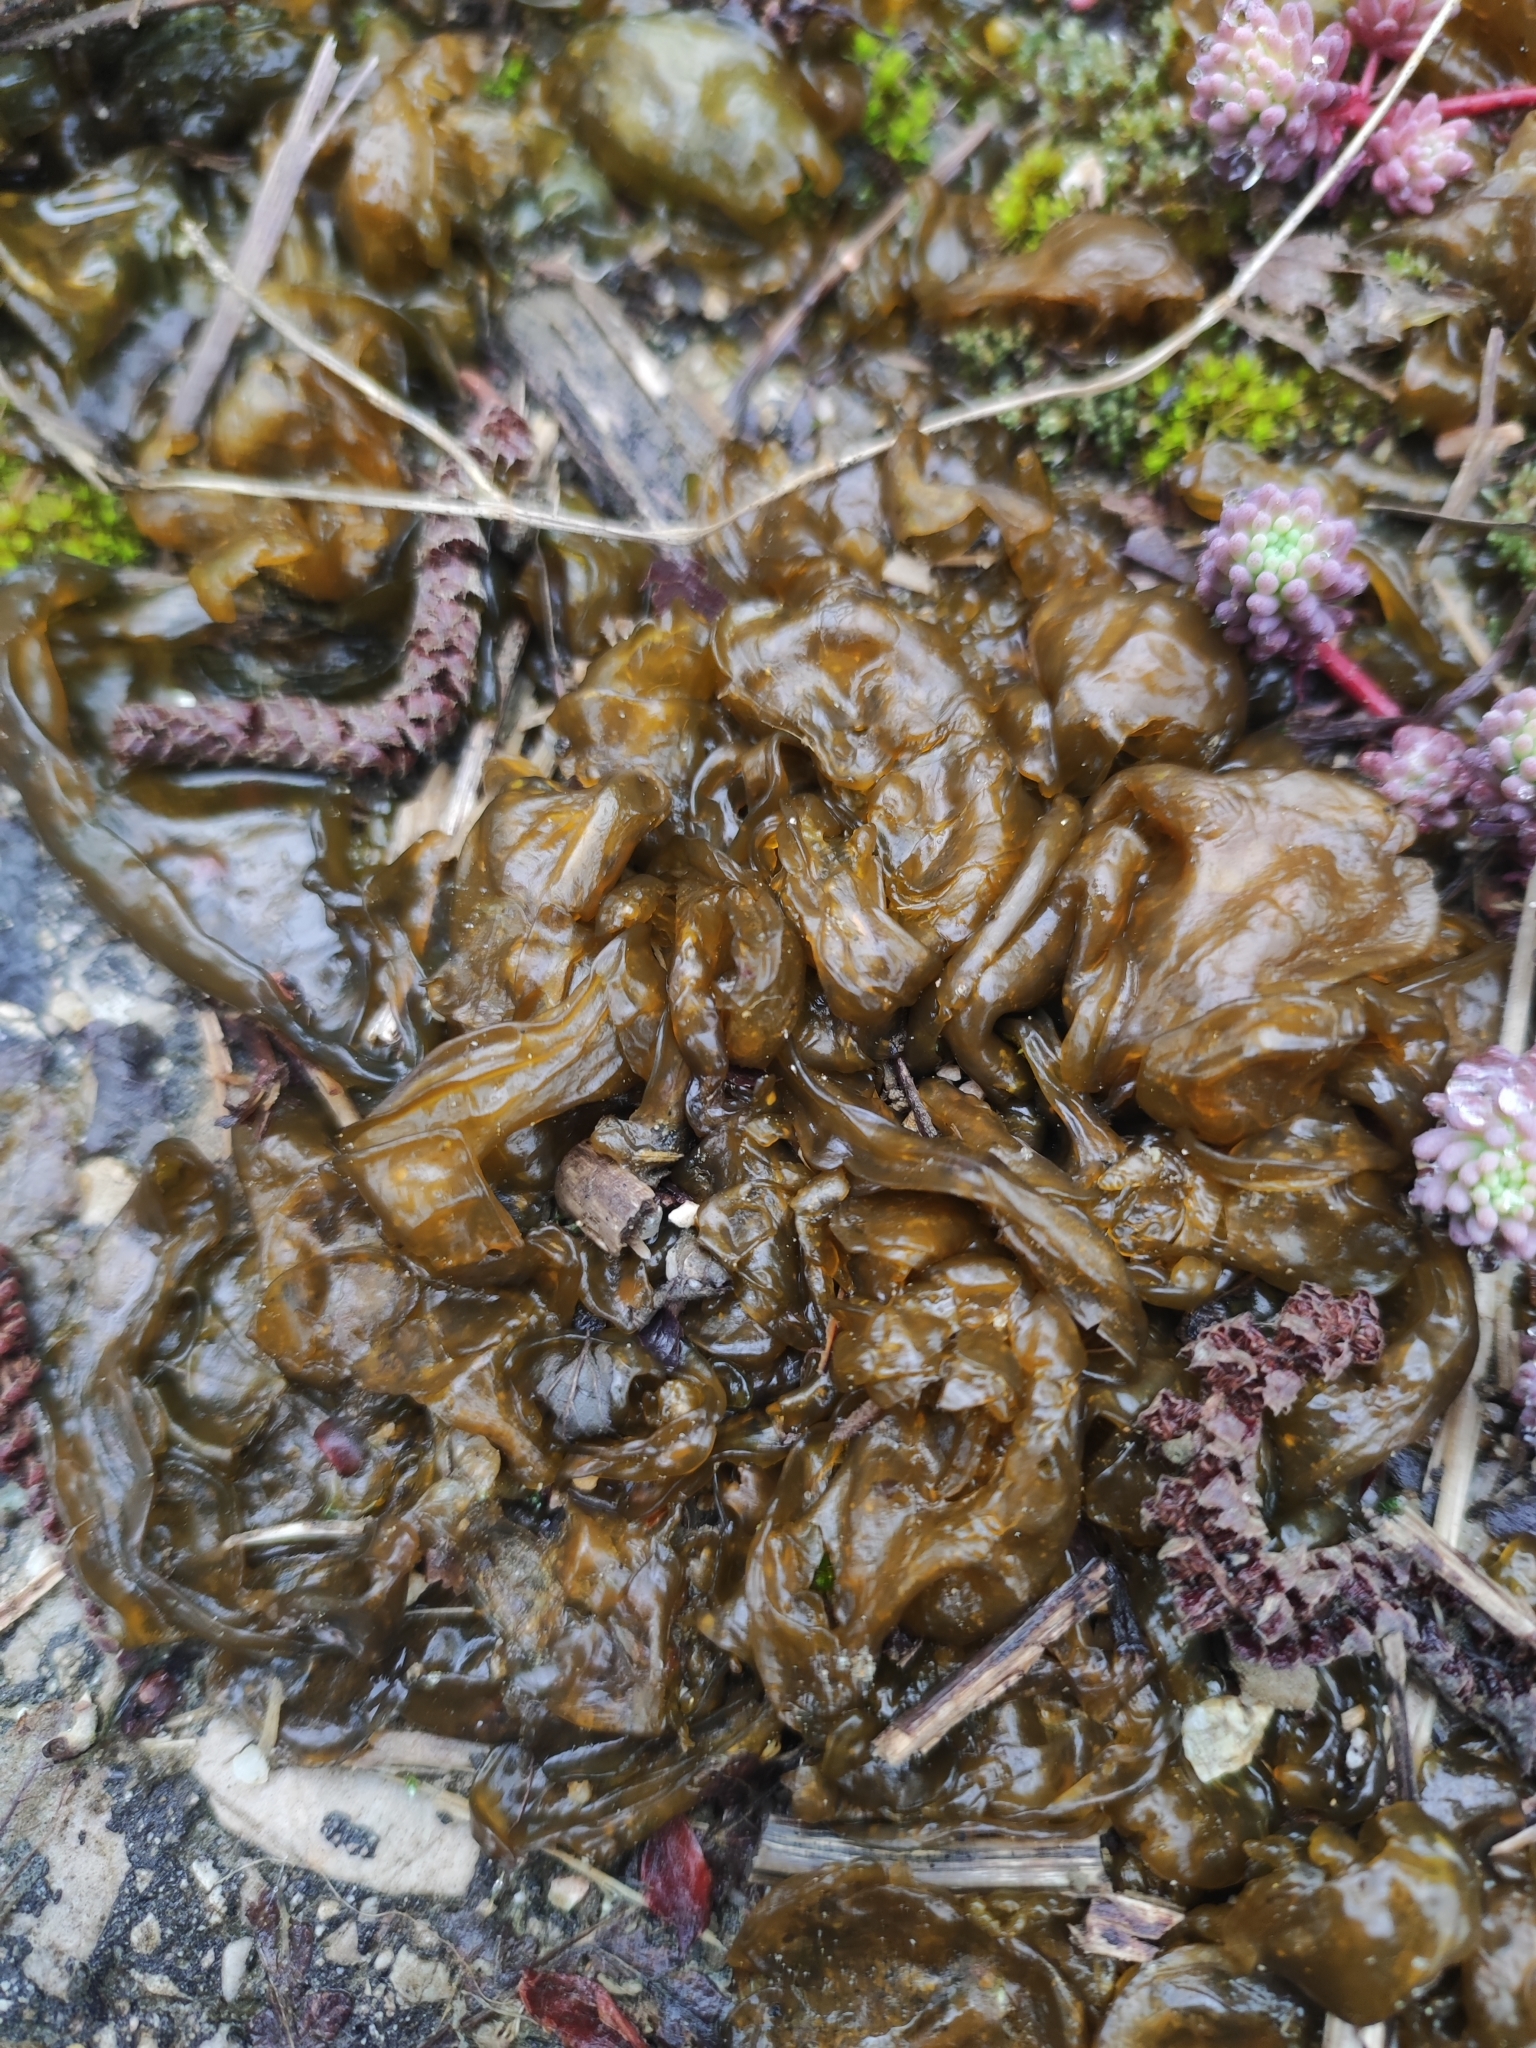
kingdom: Bacteria
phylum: Cyanobacteria
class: Cyanobacteriia
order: Cyanobacteriales
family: Nostocaceae
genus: Nostoc
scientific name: Nostoc commune
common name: Star jelly
